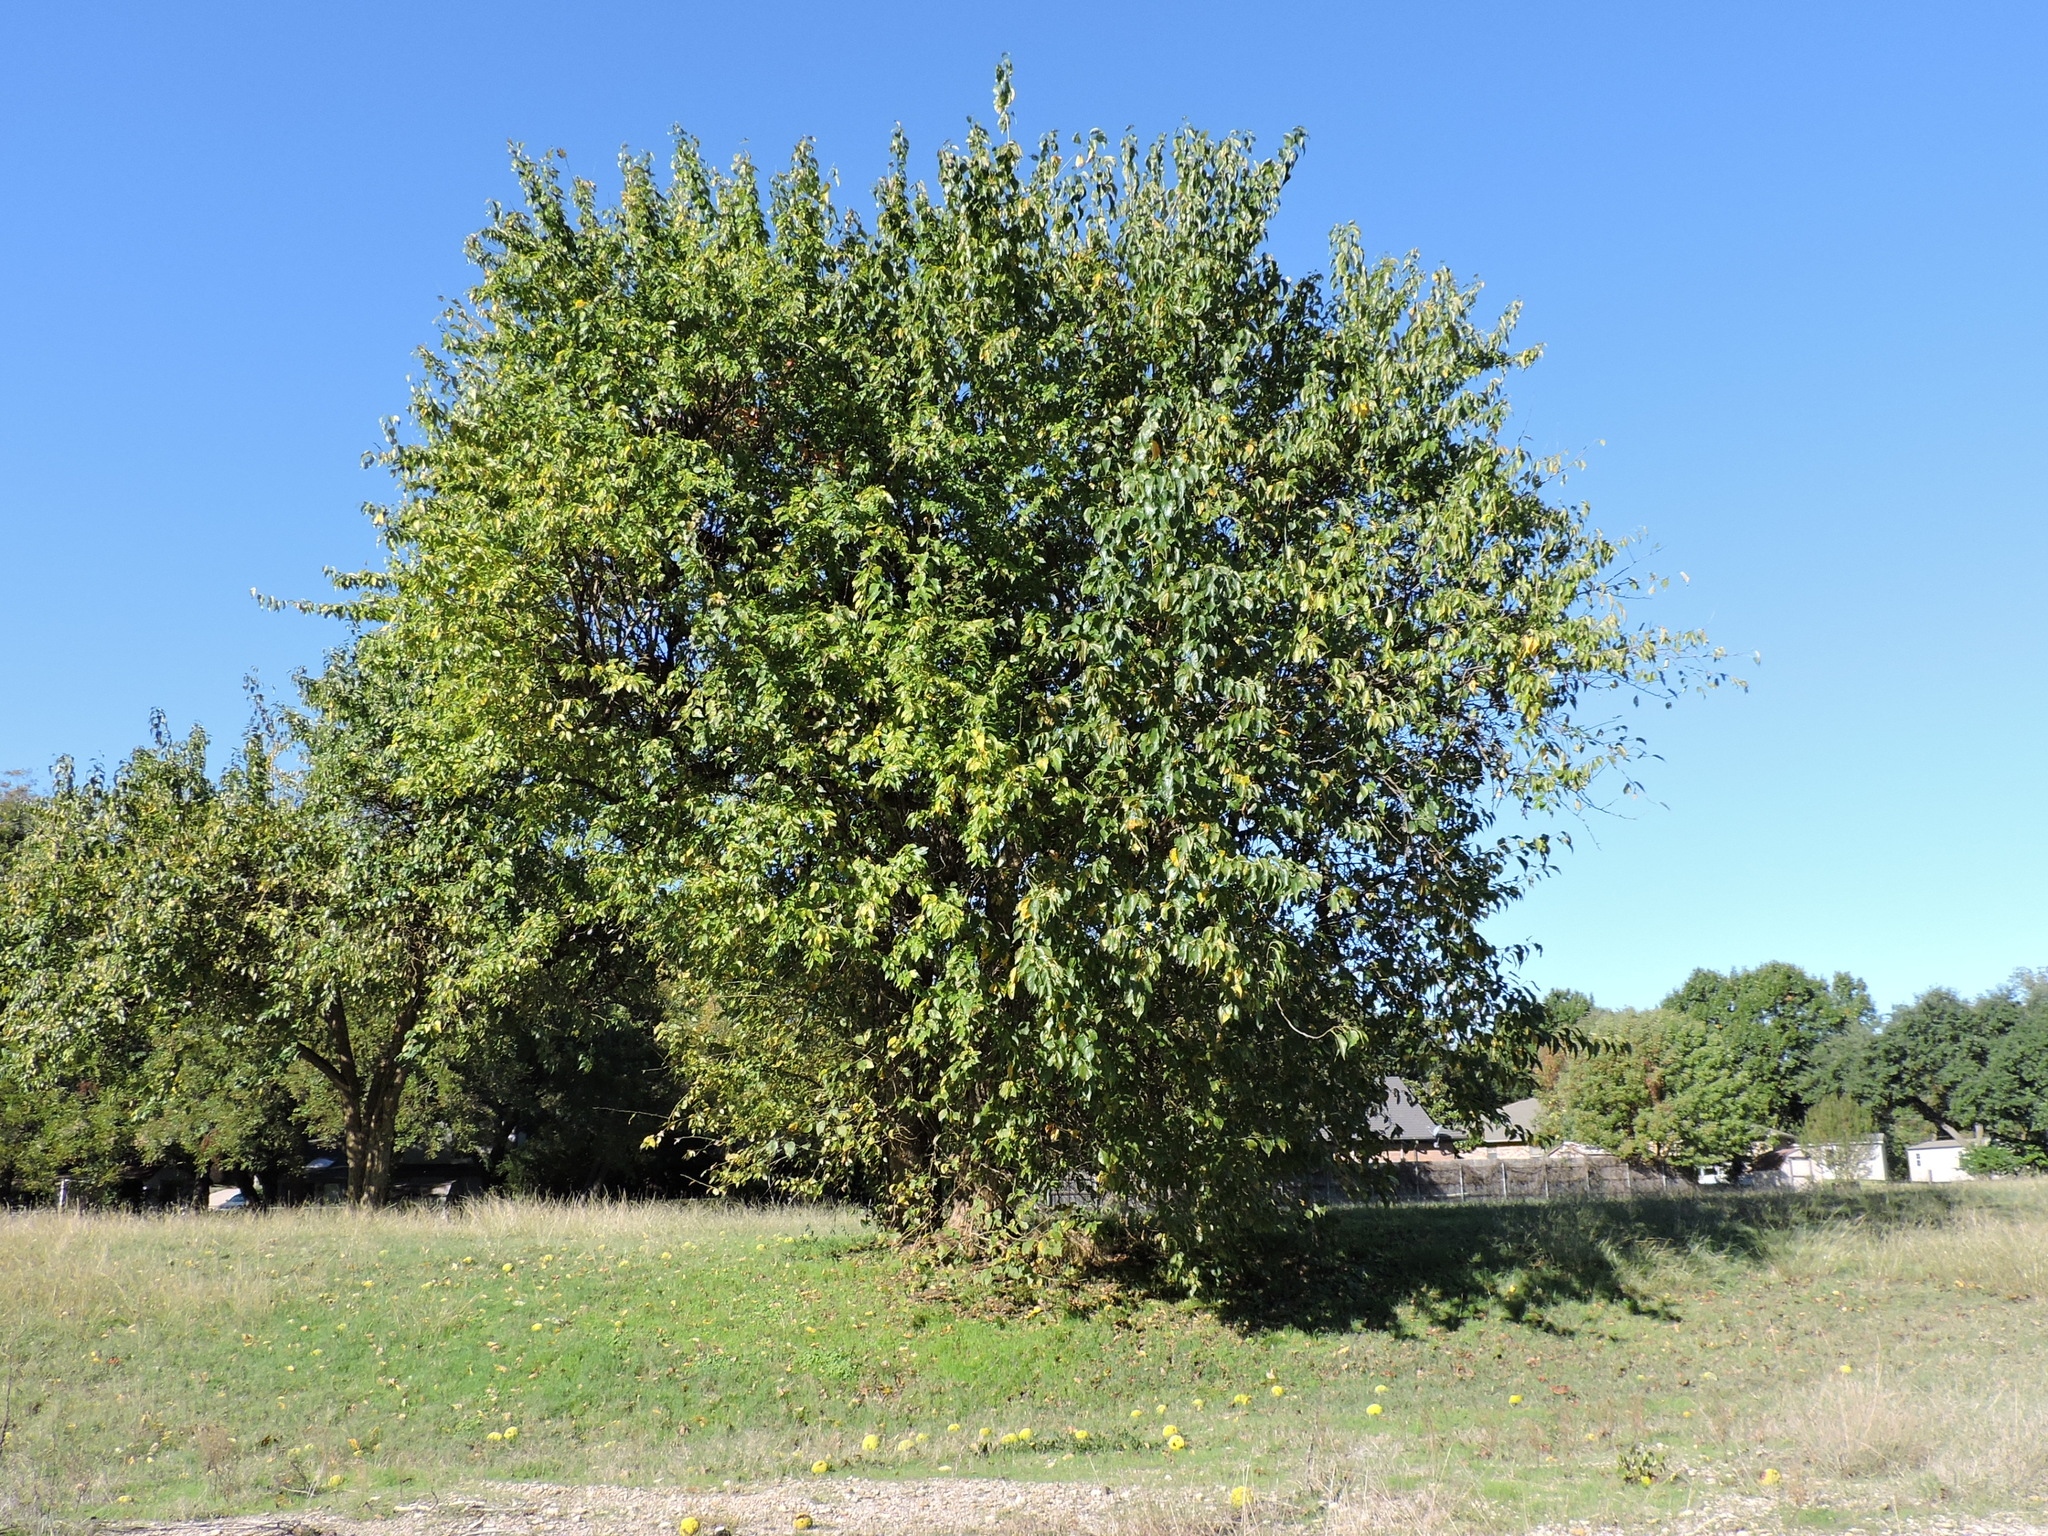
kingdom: Plantae
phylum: Tracheophyta
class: Magnoliopsida
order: Rosales
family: Moraceae
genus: Maclura
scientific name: Maclura pomifera
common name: Osage-orange
